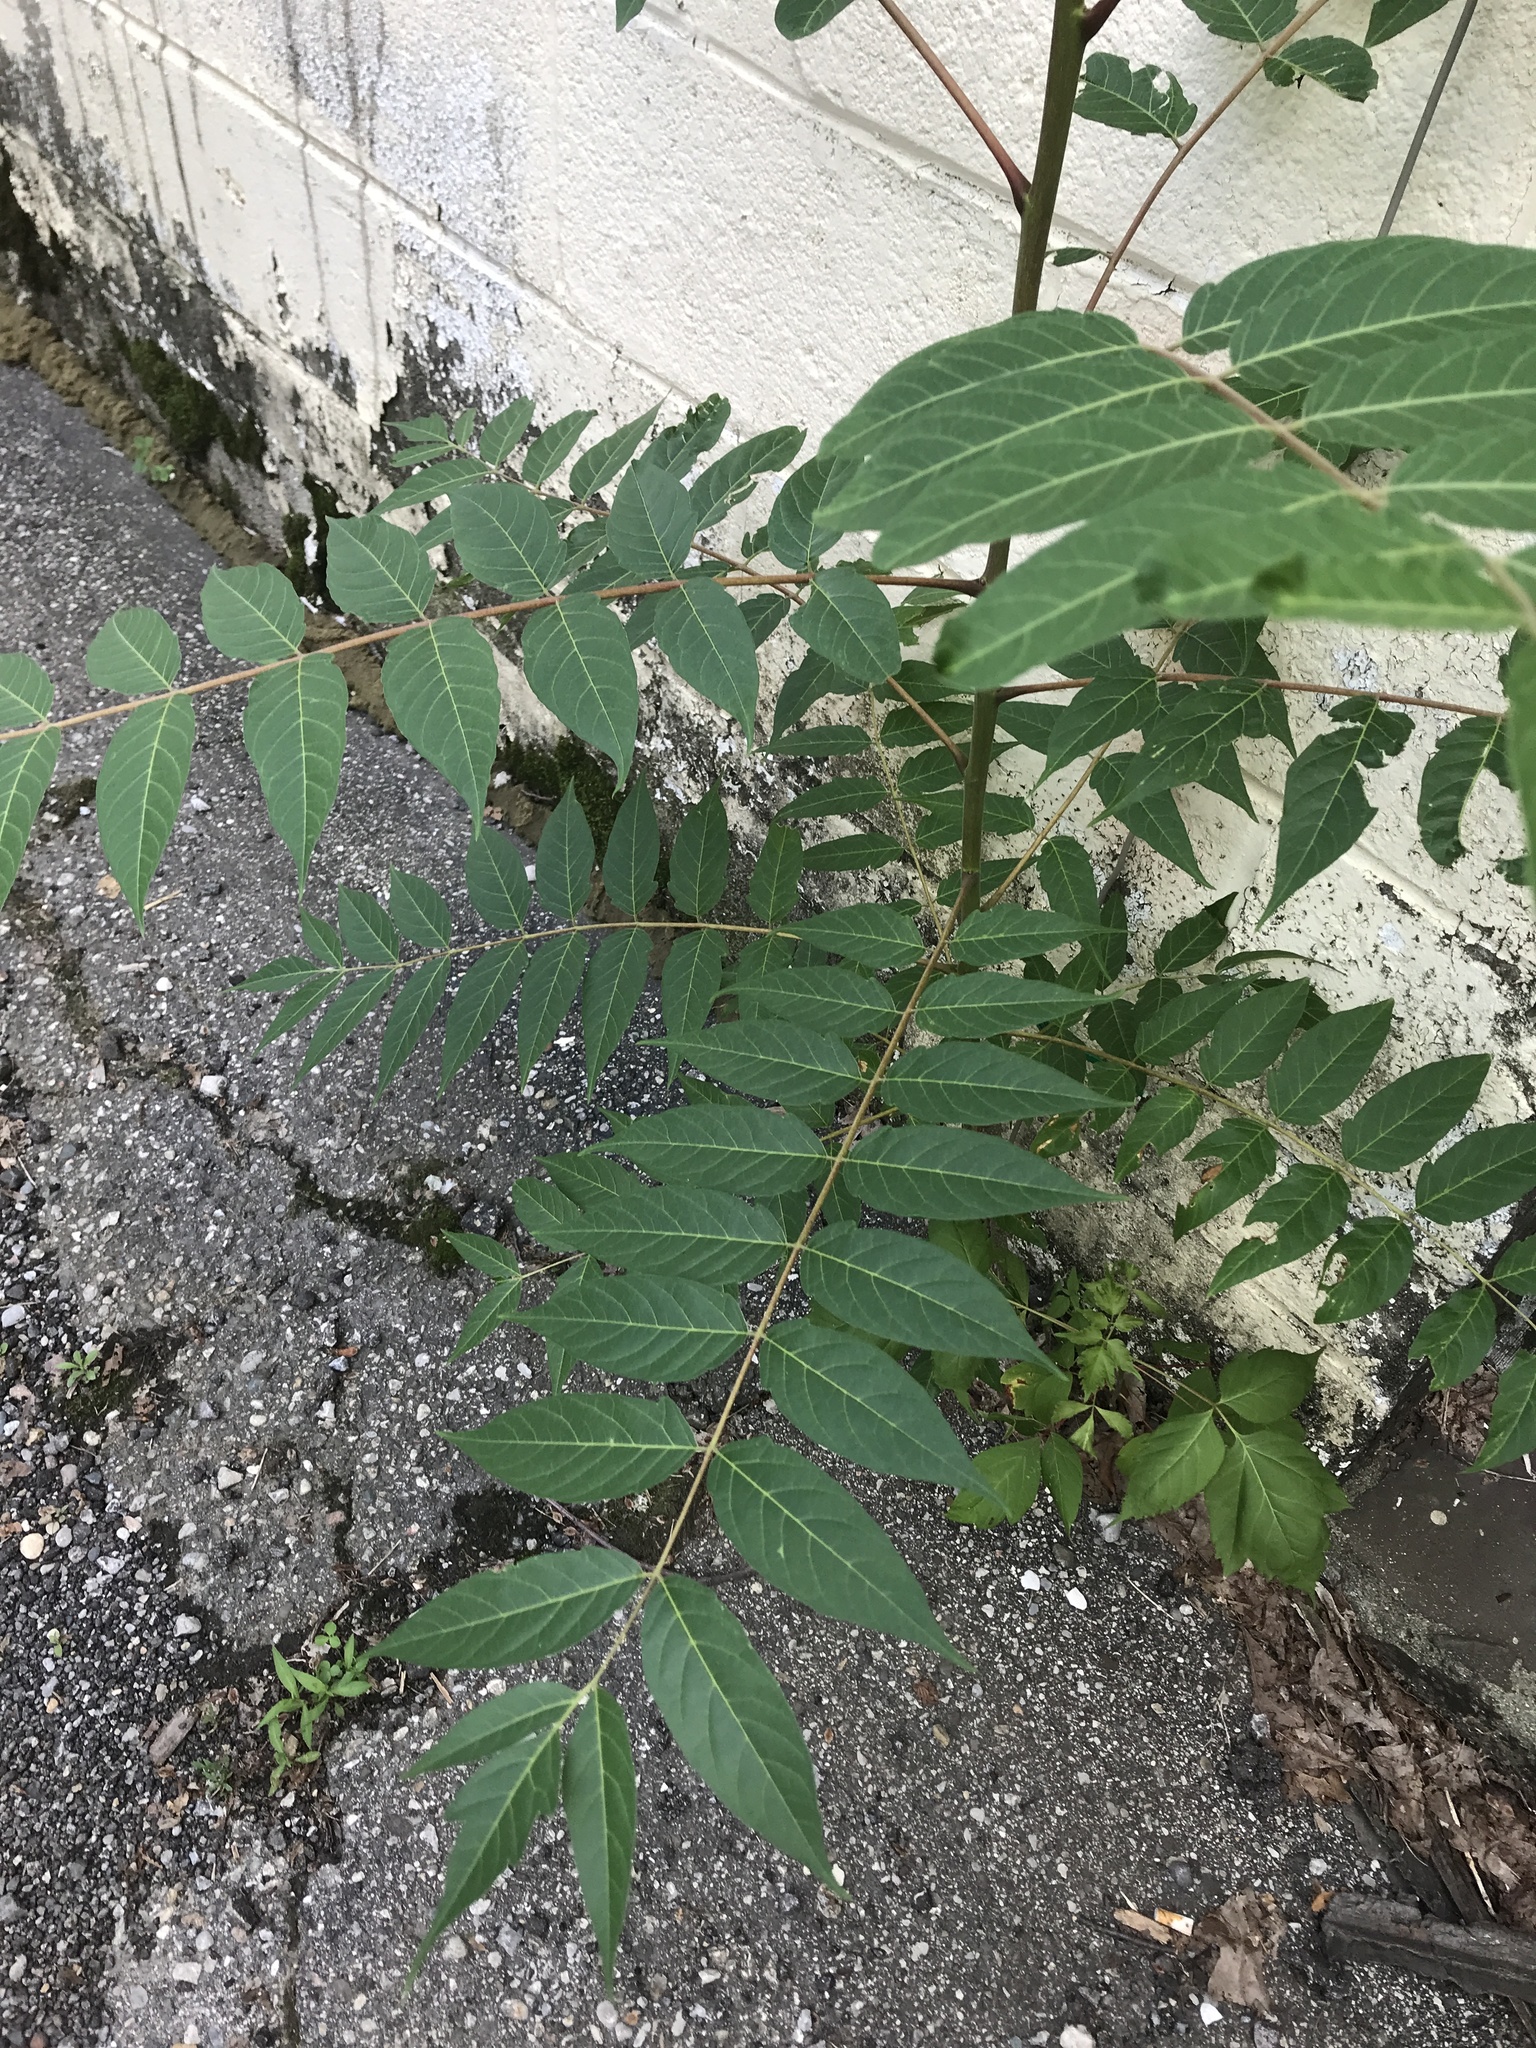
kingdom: Plantae
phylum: Tracheophyta
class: Magnoliopsida
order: Sapindales
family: Simaroubaceae
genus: Ailanthus
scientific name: Ailanthus altissima
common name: Tree-of-heaven
